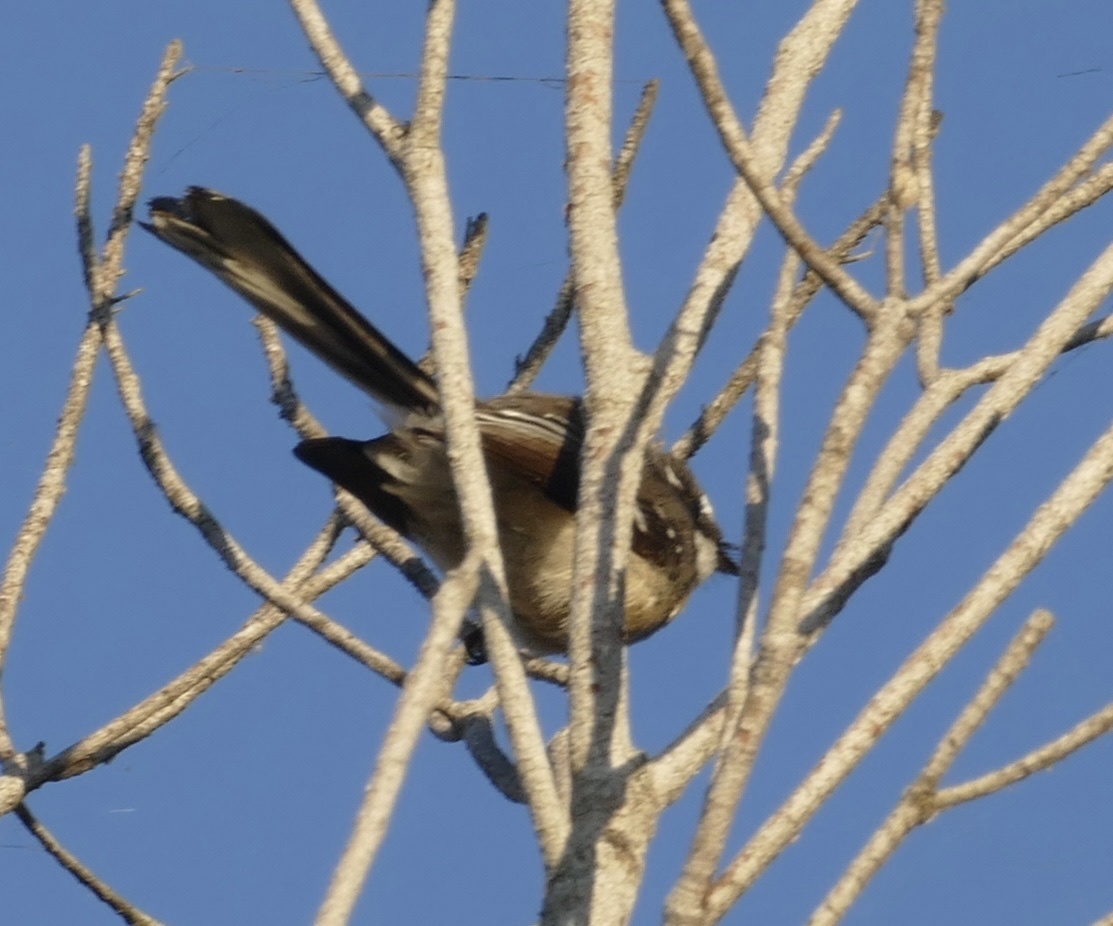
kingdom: Animalia
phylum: Chordata
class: Aves
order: Passeriformes
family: Rhipiduridae
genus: Rhipidura
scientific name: Rhipidura albiscapa
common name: Grey fantail
